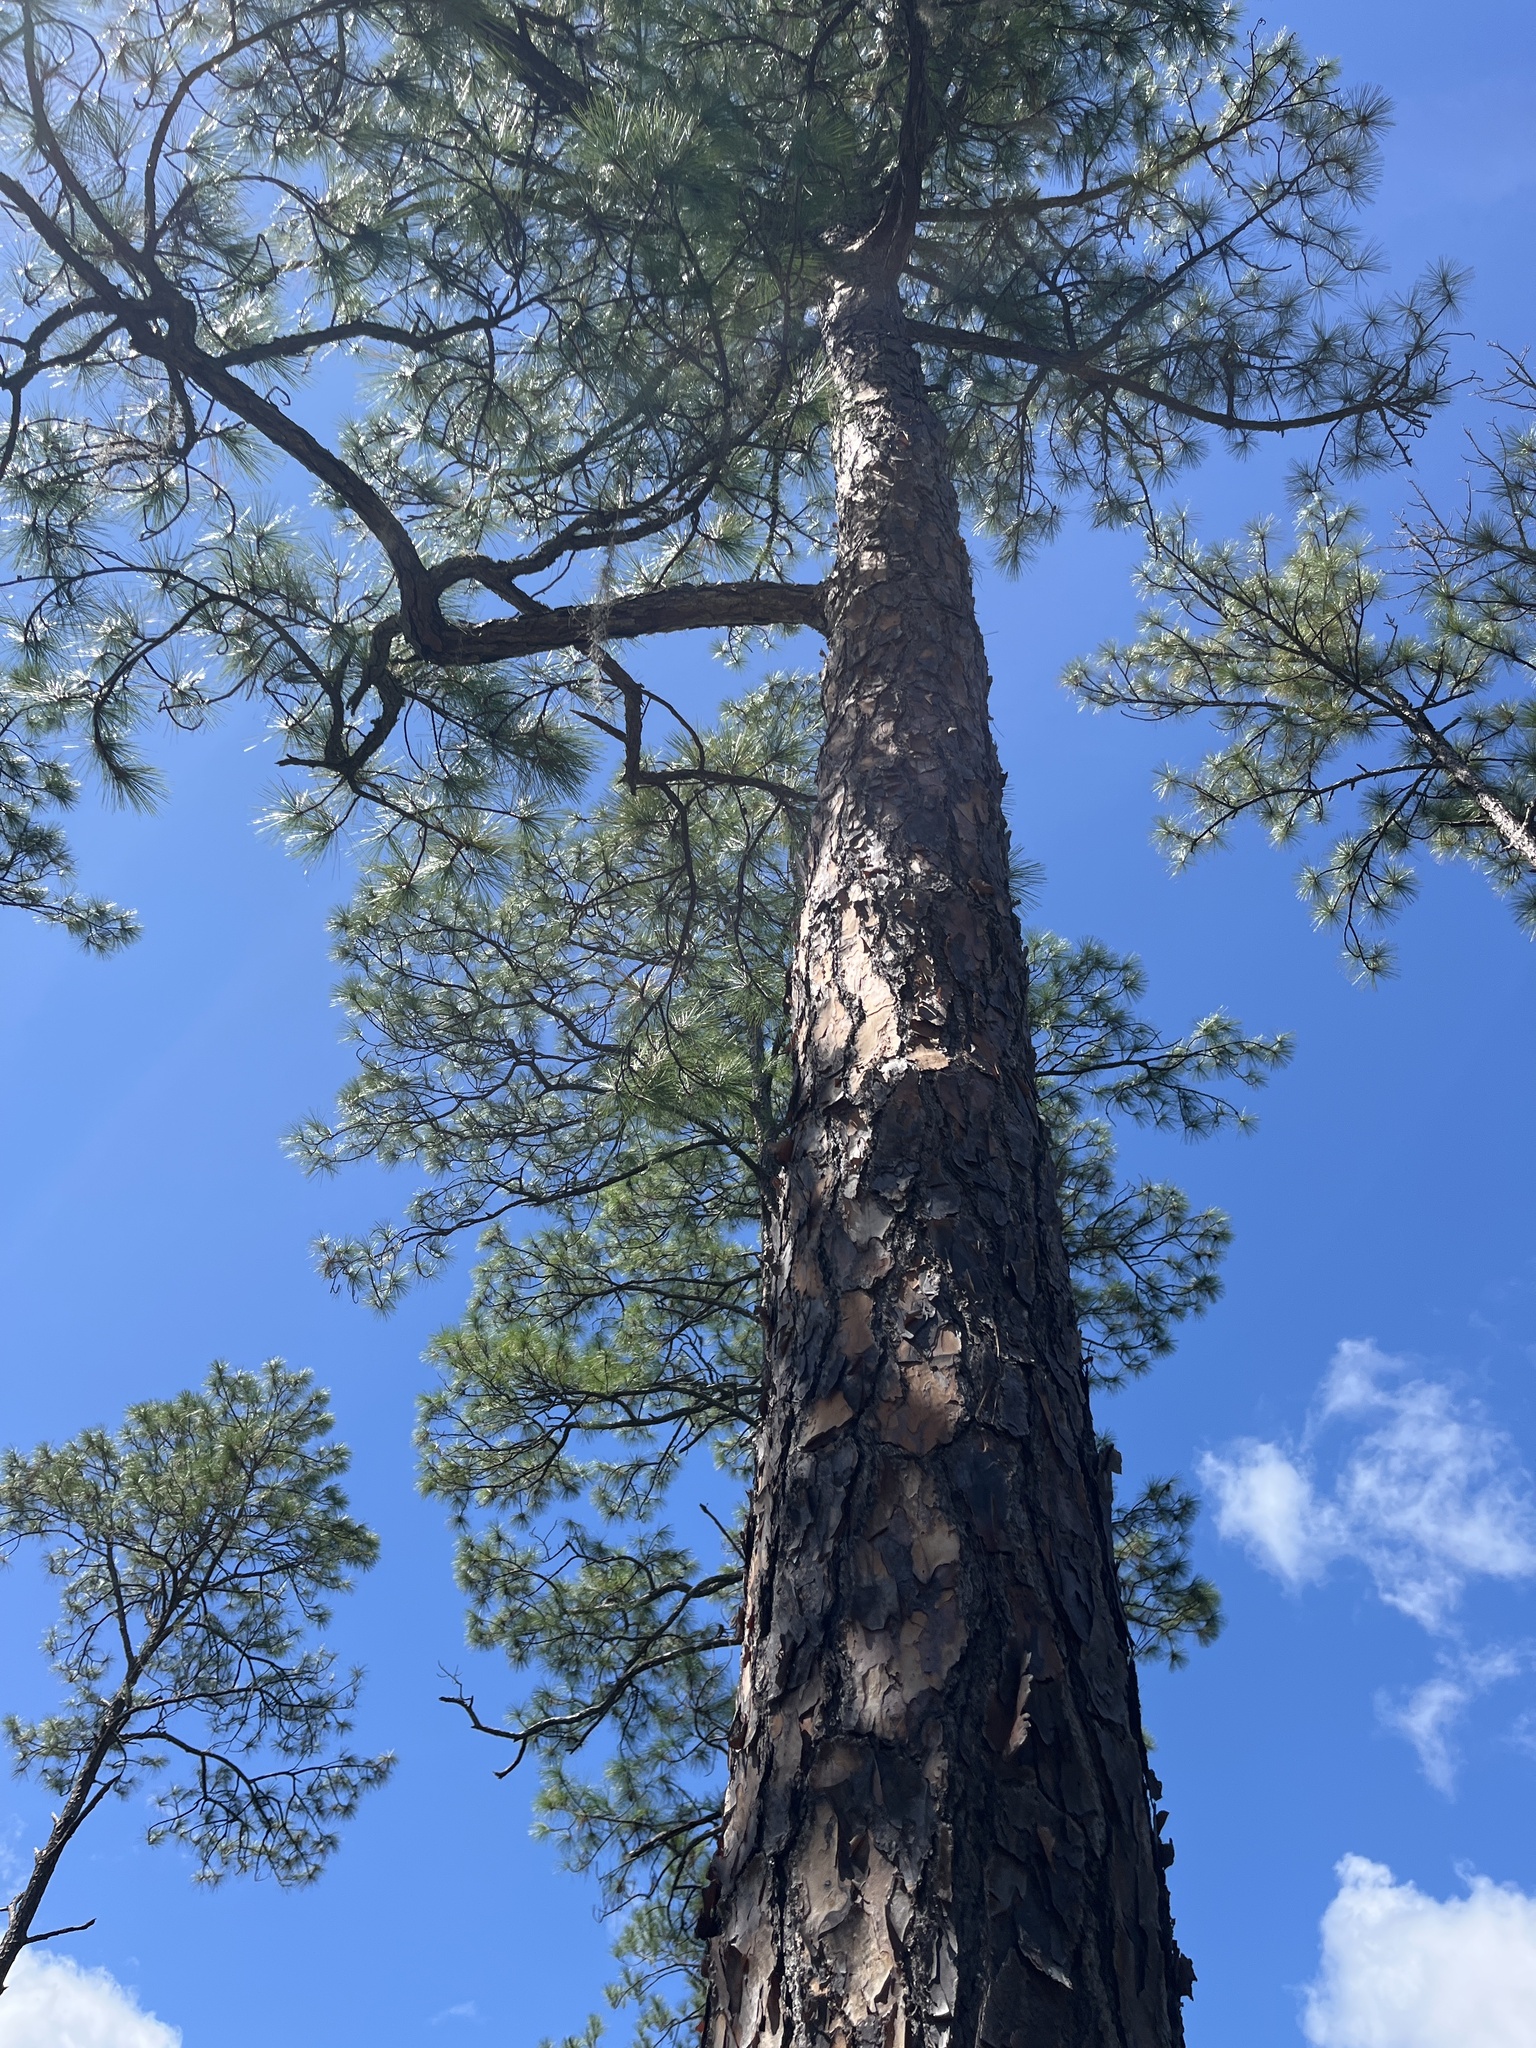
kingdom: Plantae
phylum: Tracheophyta
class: Pinopsida
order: Pinales
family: Pinaceae
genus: Pinus
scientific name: Pinus elliottii
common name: Slash pine
